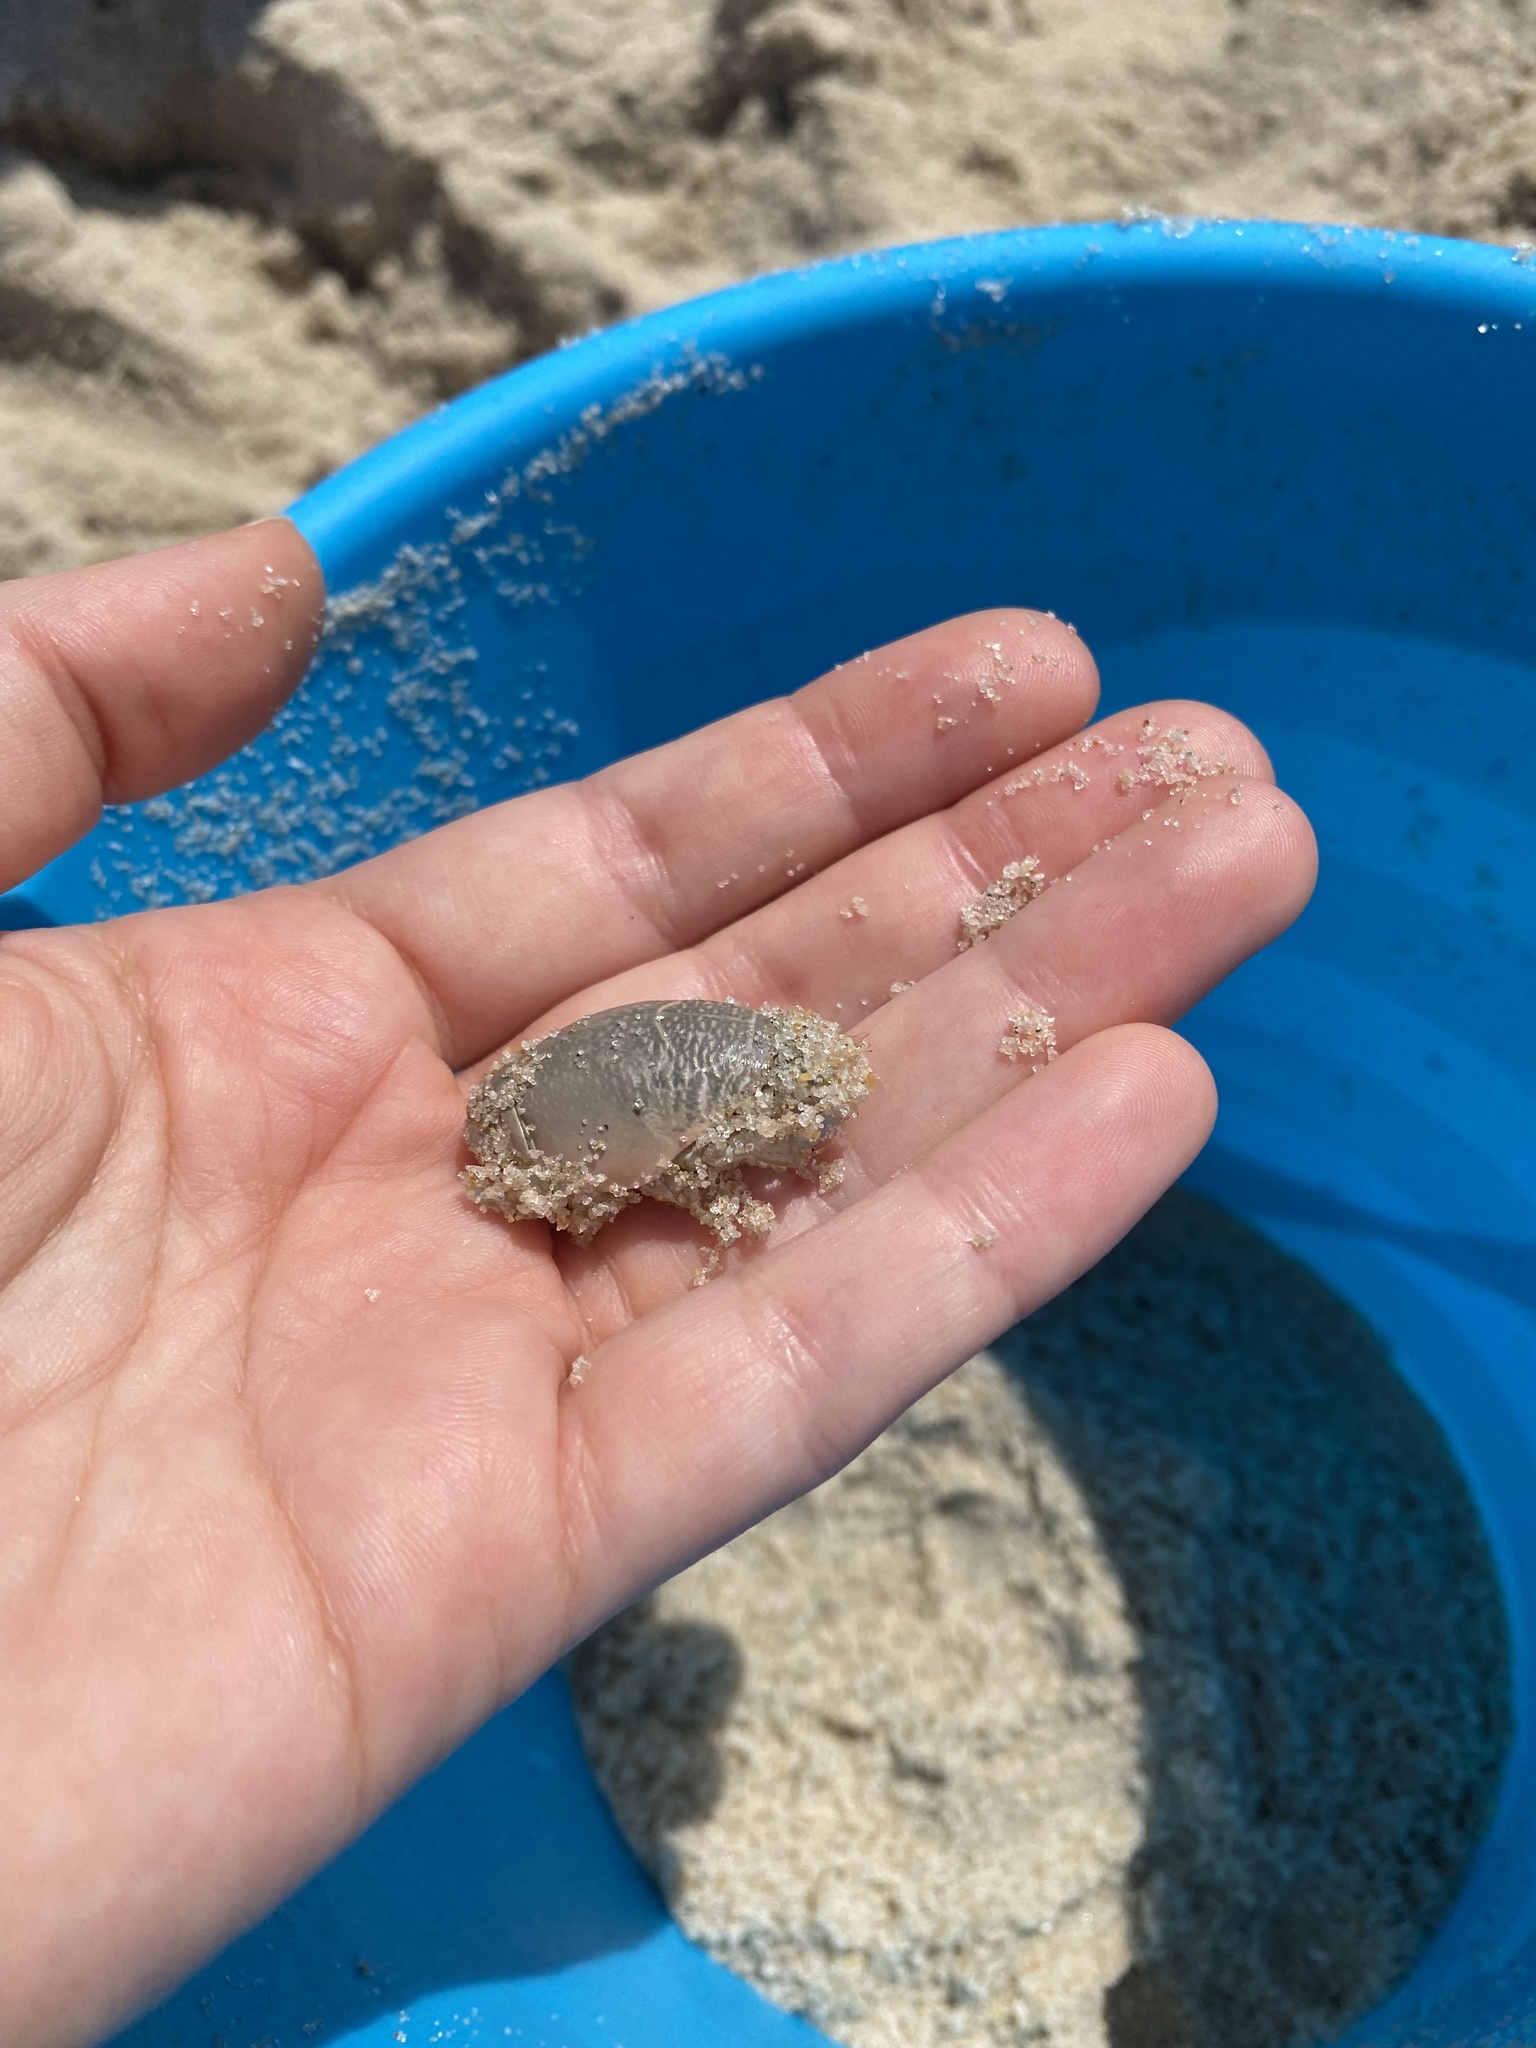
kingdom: Animalia
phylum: Arthropoda
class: Malacostraca
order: Decapoda
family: Hippidae
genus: Emerita
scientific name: Emerita talpoida
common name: Atlantic sand crab
